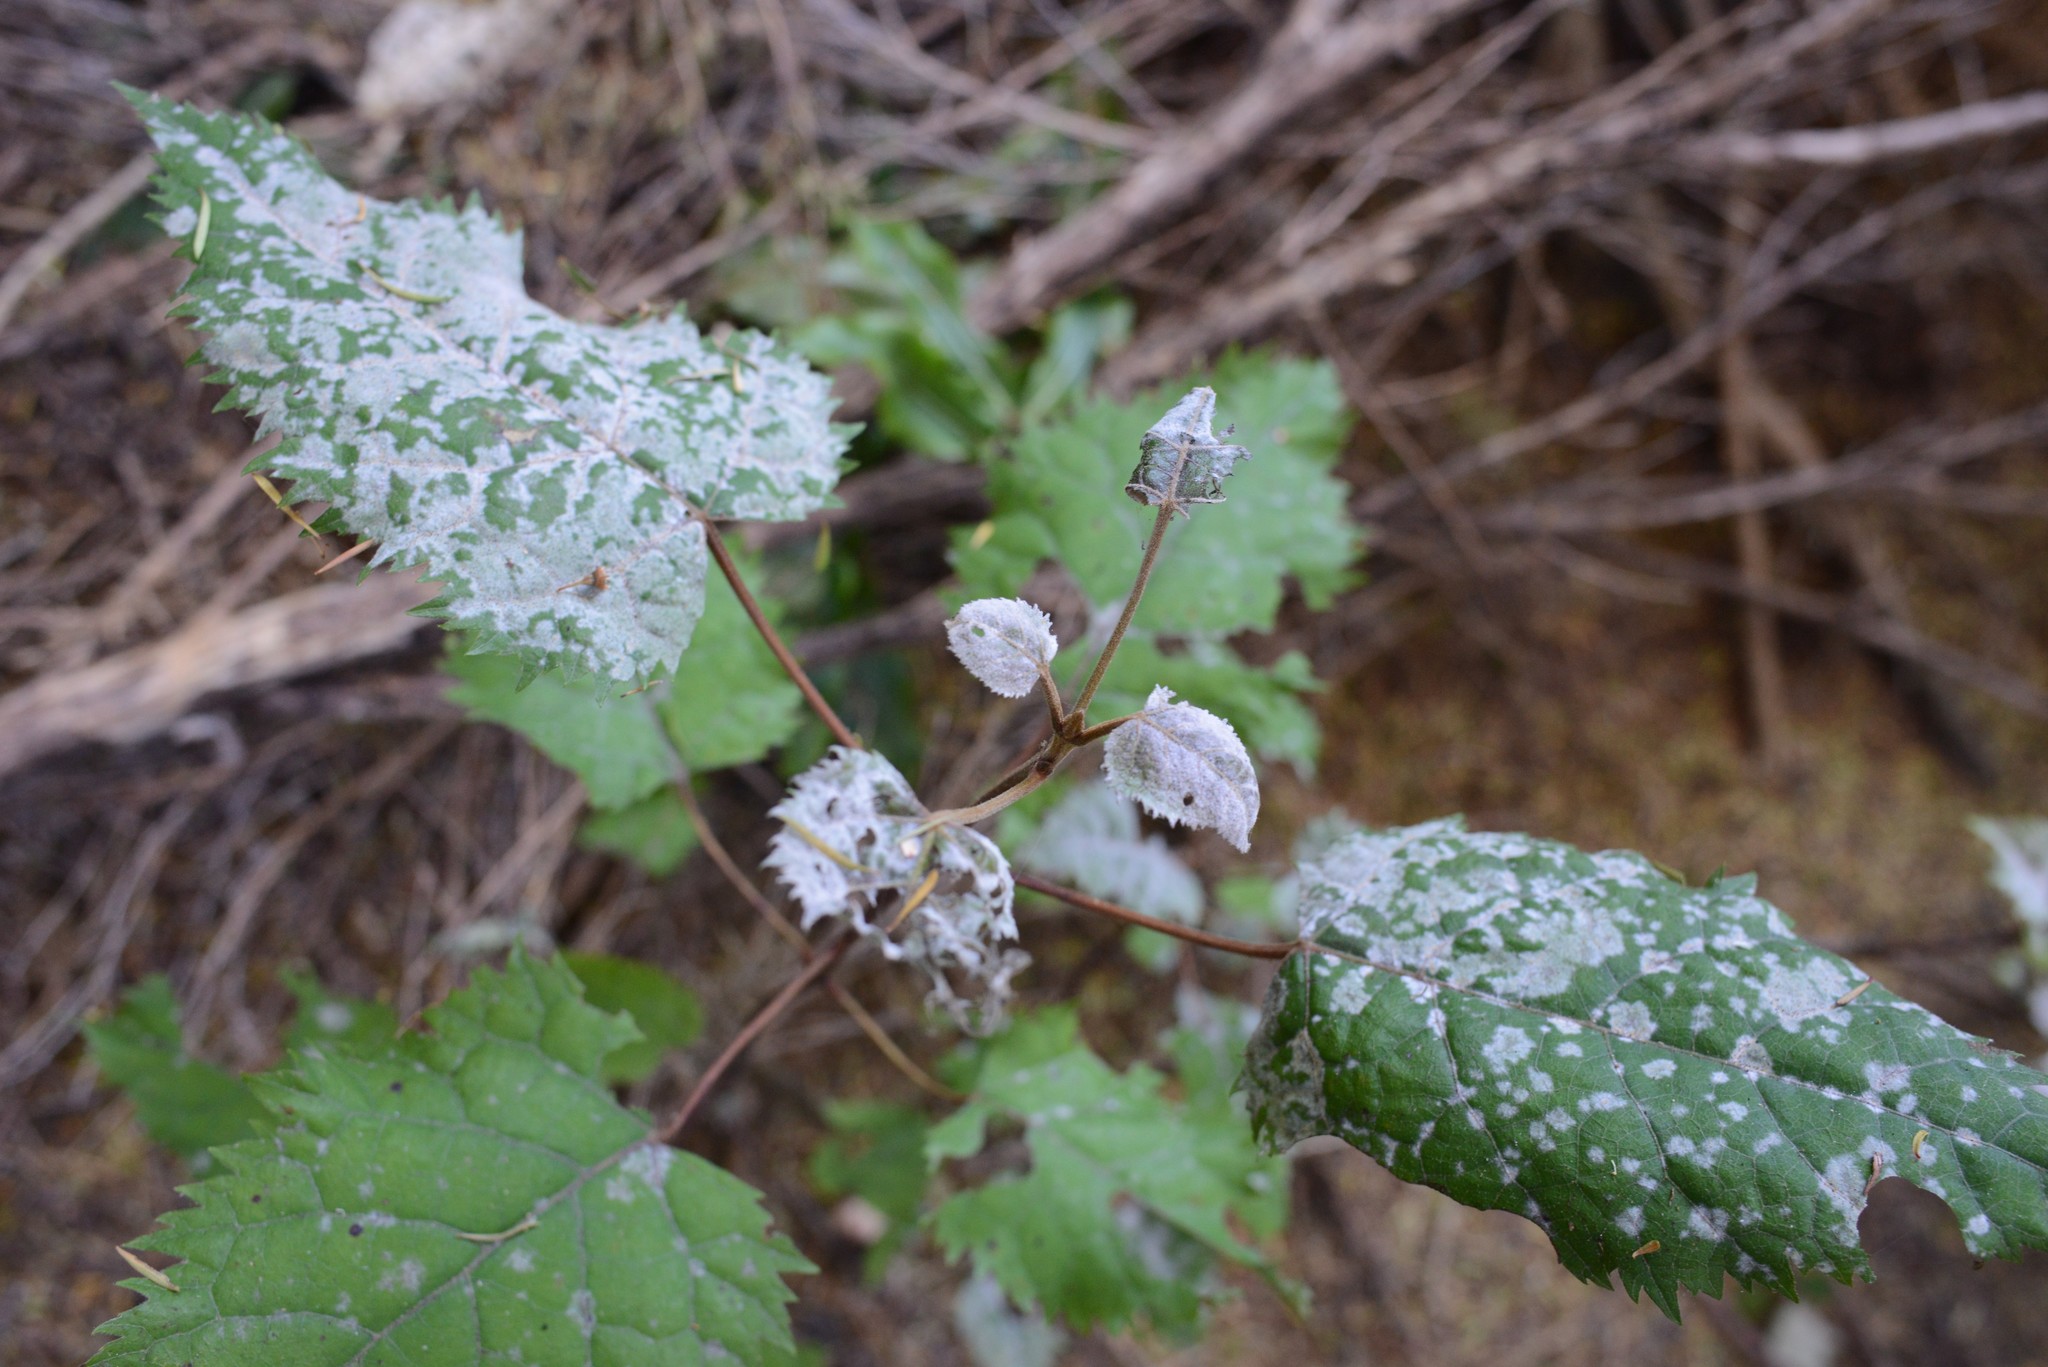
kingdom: Fungi
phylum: Ascomycota
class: Leotiomycetes
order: Helotiales
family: Erysiphaceae
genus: Erysiphe
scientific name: Erysiphe densa
